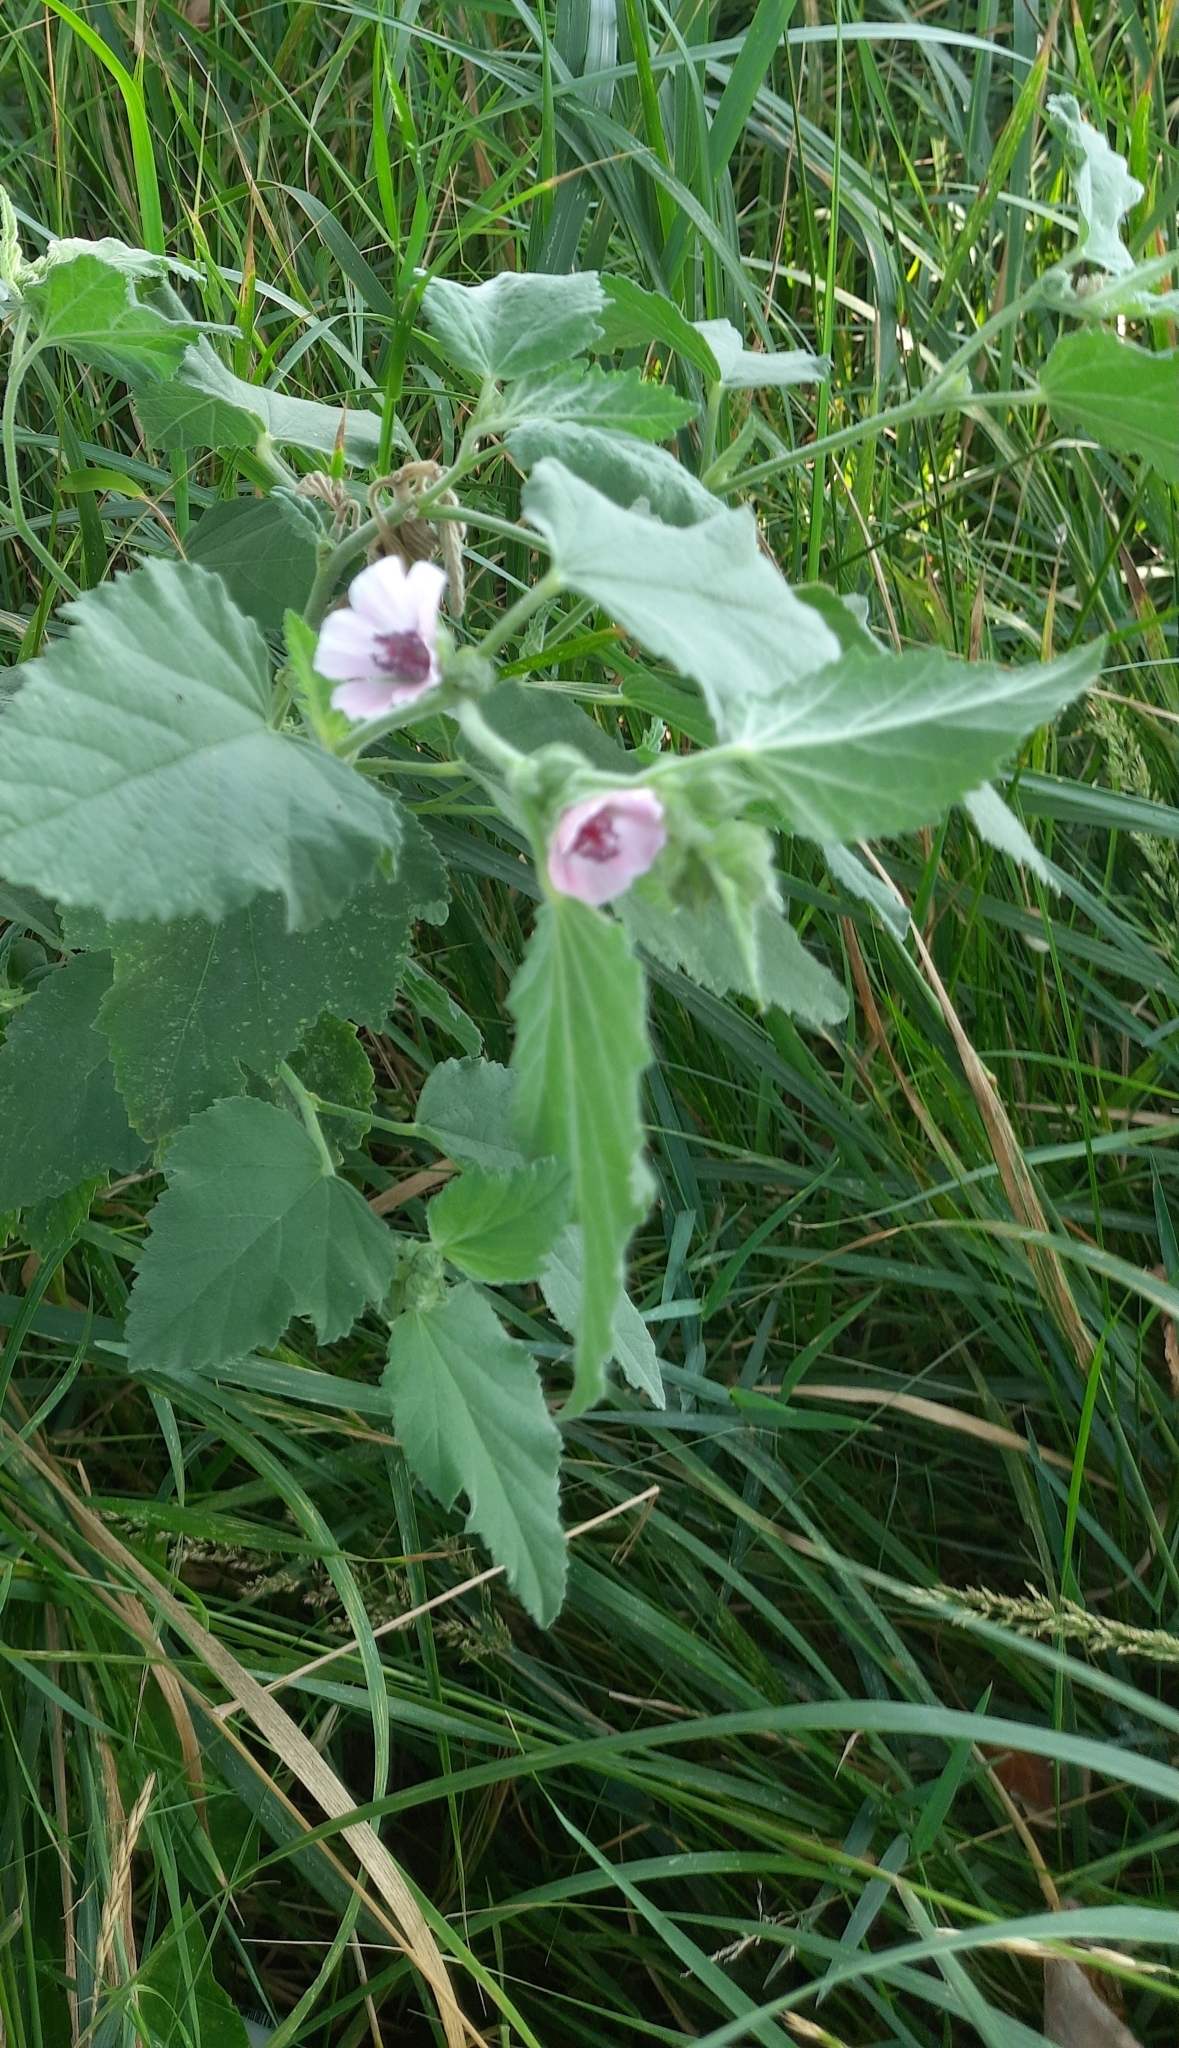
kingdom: Plantae
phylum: Tracheophyta
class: Magnoliopsida
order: Malvales
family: Malvaceae
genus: Althaea
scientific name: Althaea officinalis
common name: Marsh-mallow
